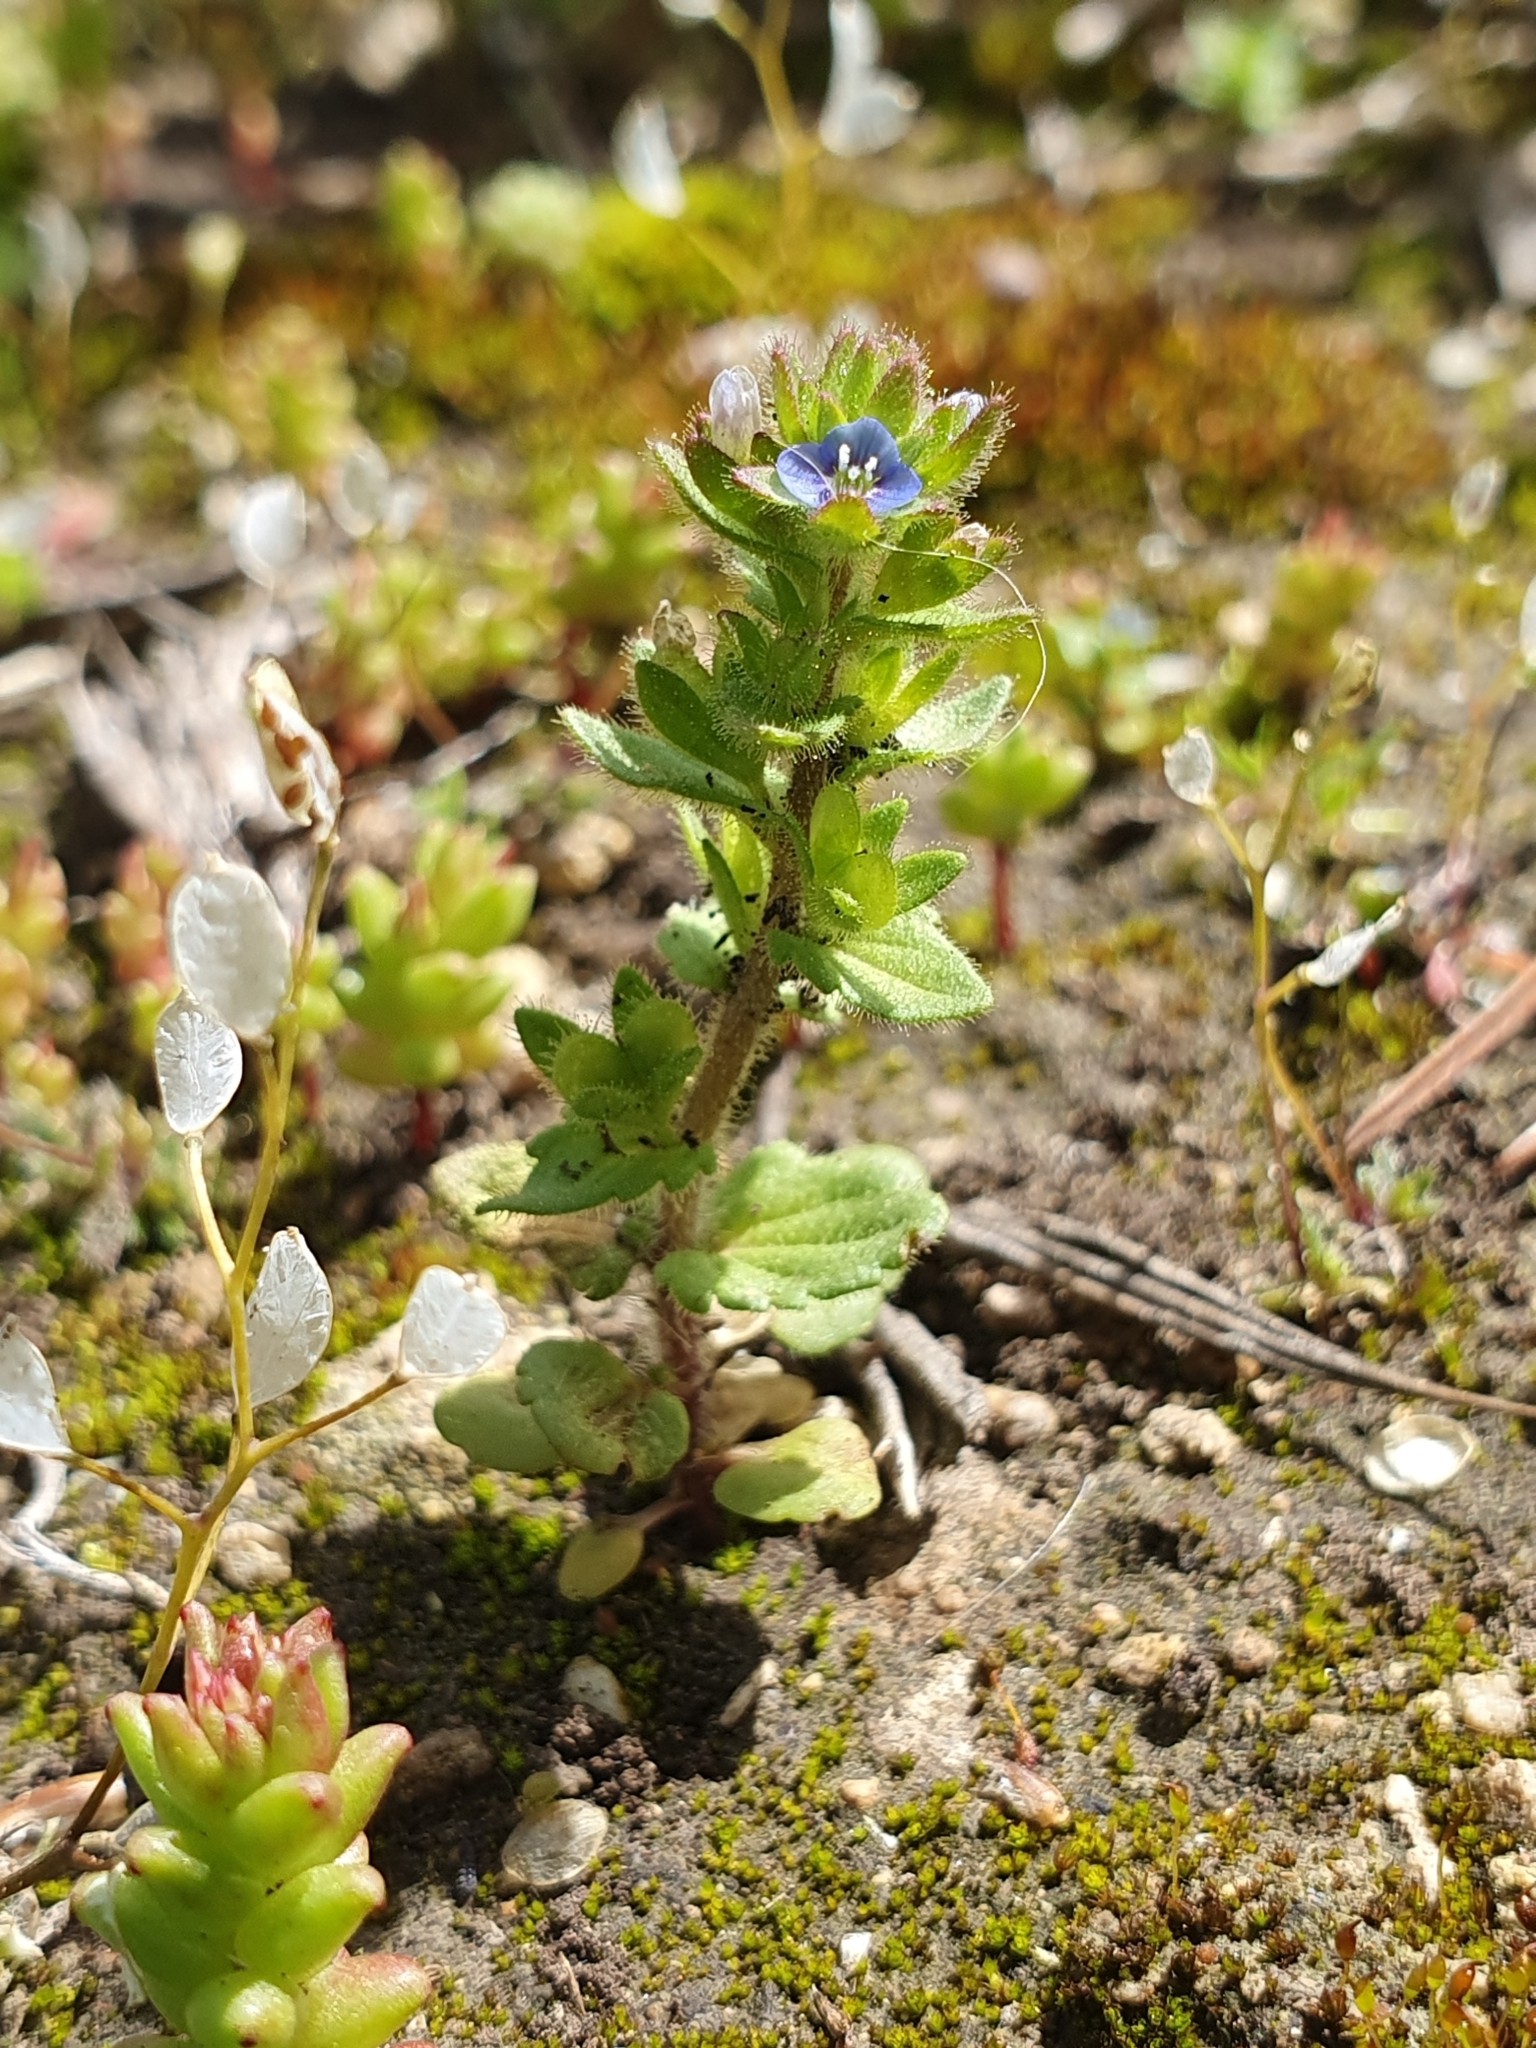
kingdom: Plantae
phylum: Tracheophyta
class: Magnoliopsida
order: Lamiales
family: Plantaginaceae
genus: Veronica
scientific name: Veronica arvensis
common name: Corn speedwell
